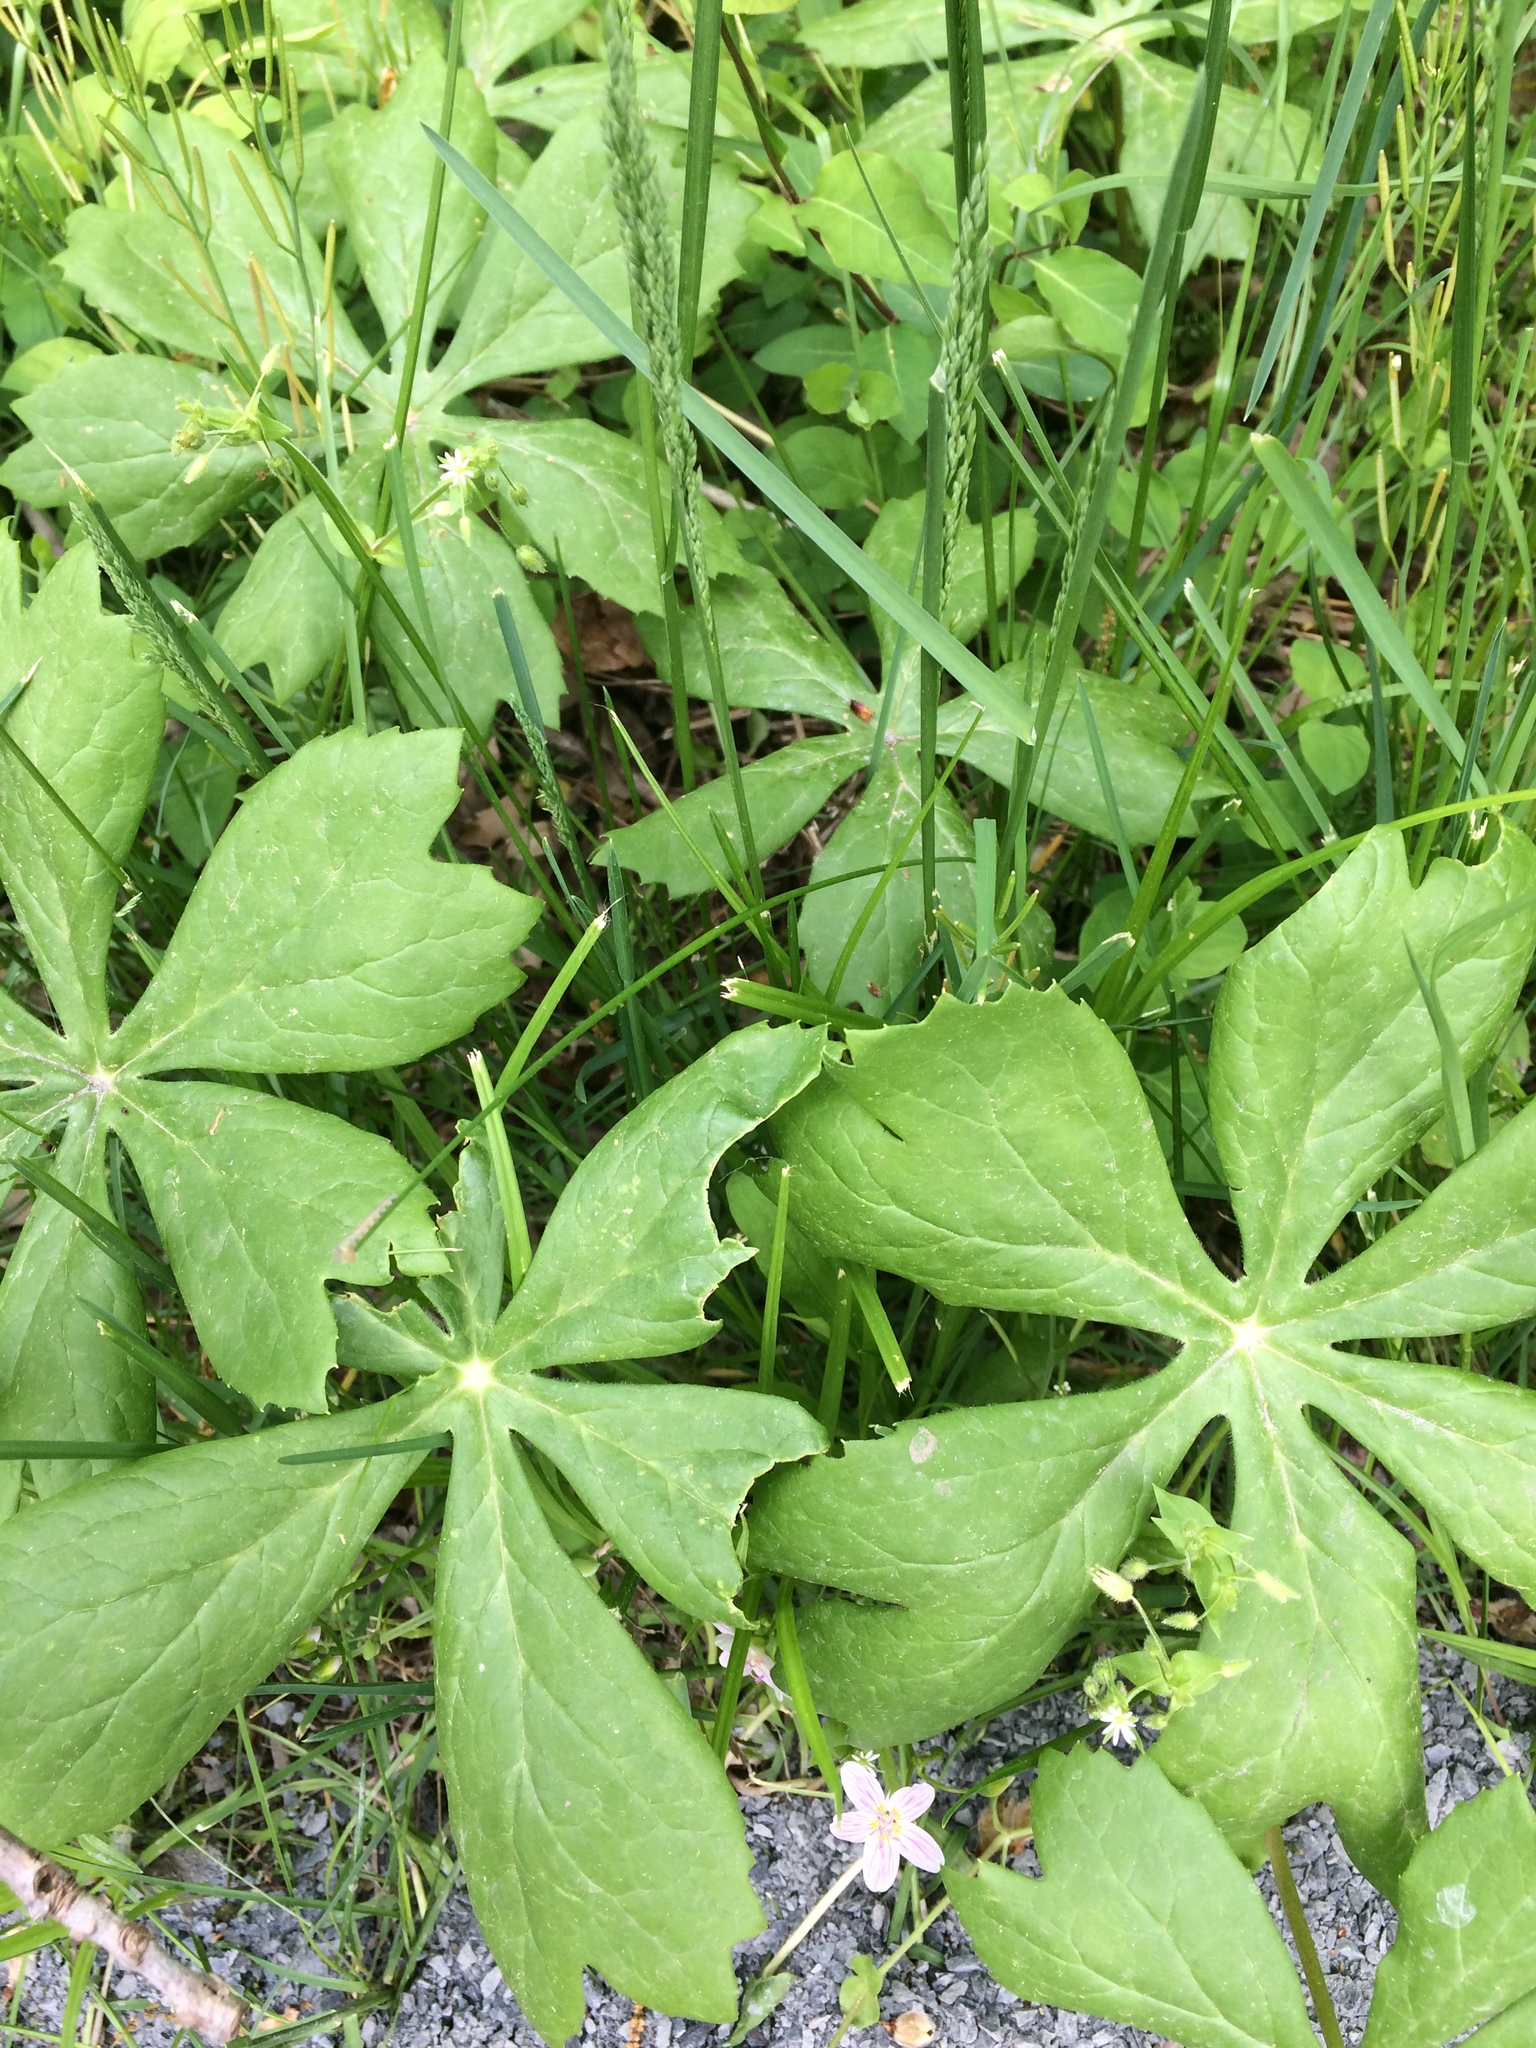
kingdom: Plantae
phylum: Tracheophyta
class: Magnoliopsida
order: Ranunculales
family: Berberidaceae
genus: Podophyllum
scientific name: Podophyllum peltatum
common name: Wild mandrake
